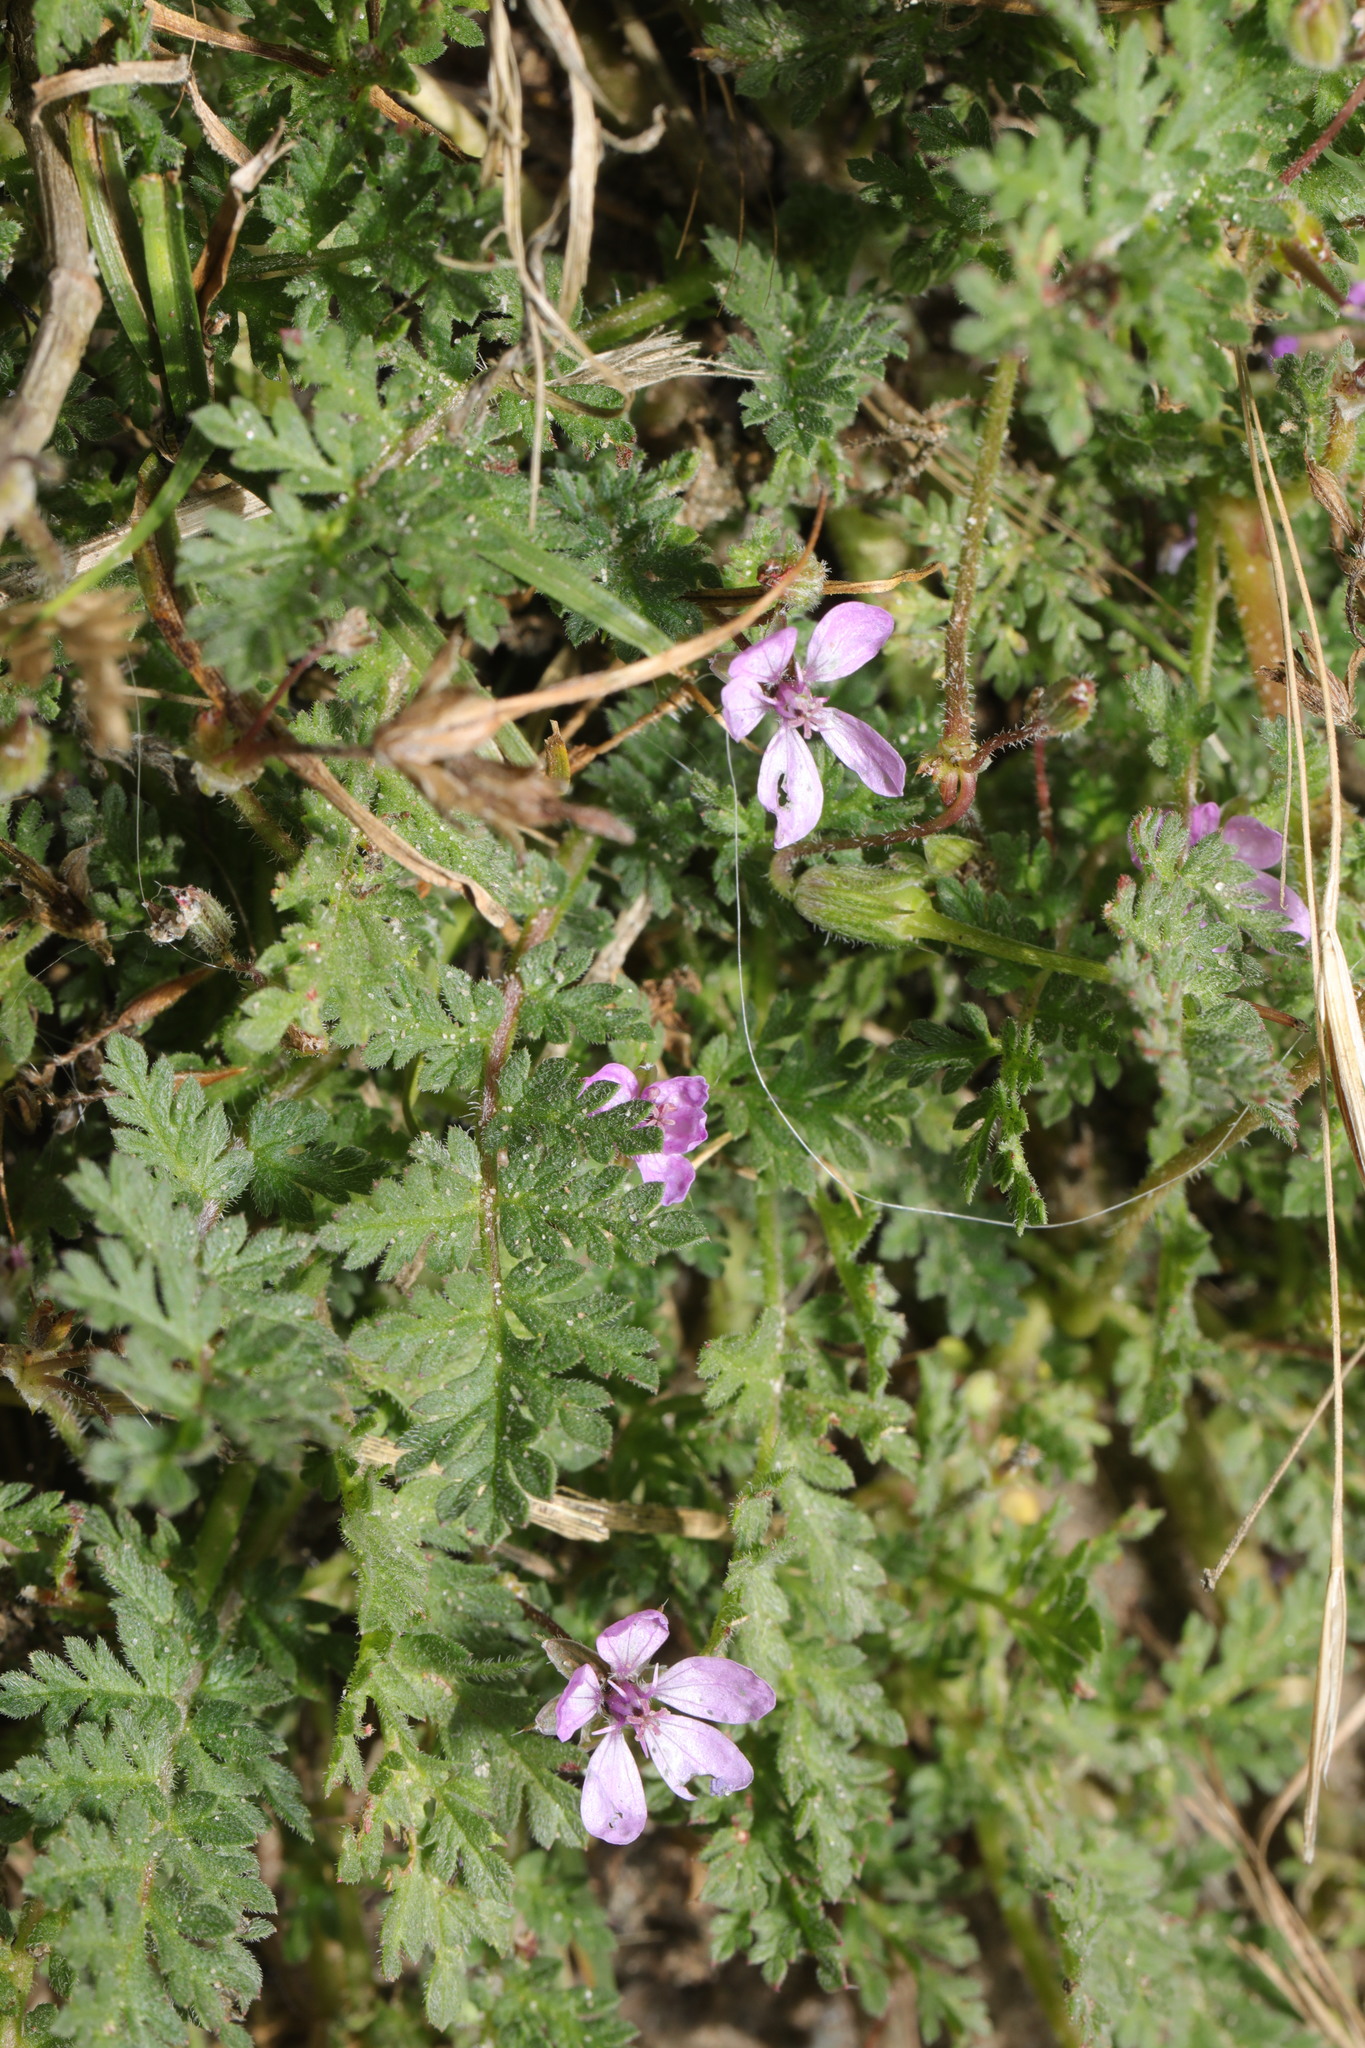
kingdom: Plantae
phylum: Tracheophyta
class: Magnoliopsida
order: Geraniales
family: Geraniaceae
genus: Erodium
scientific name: Erodium cicutarium
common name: Common stork's-bill
